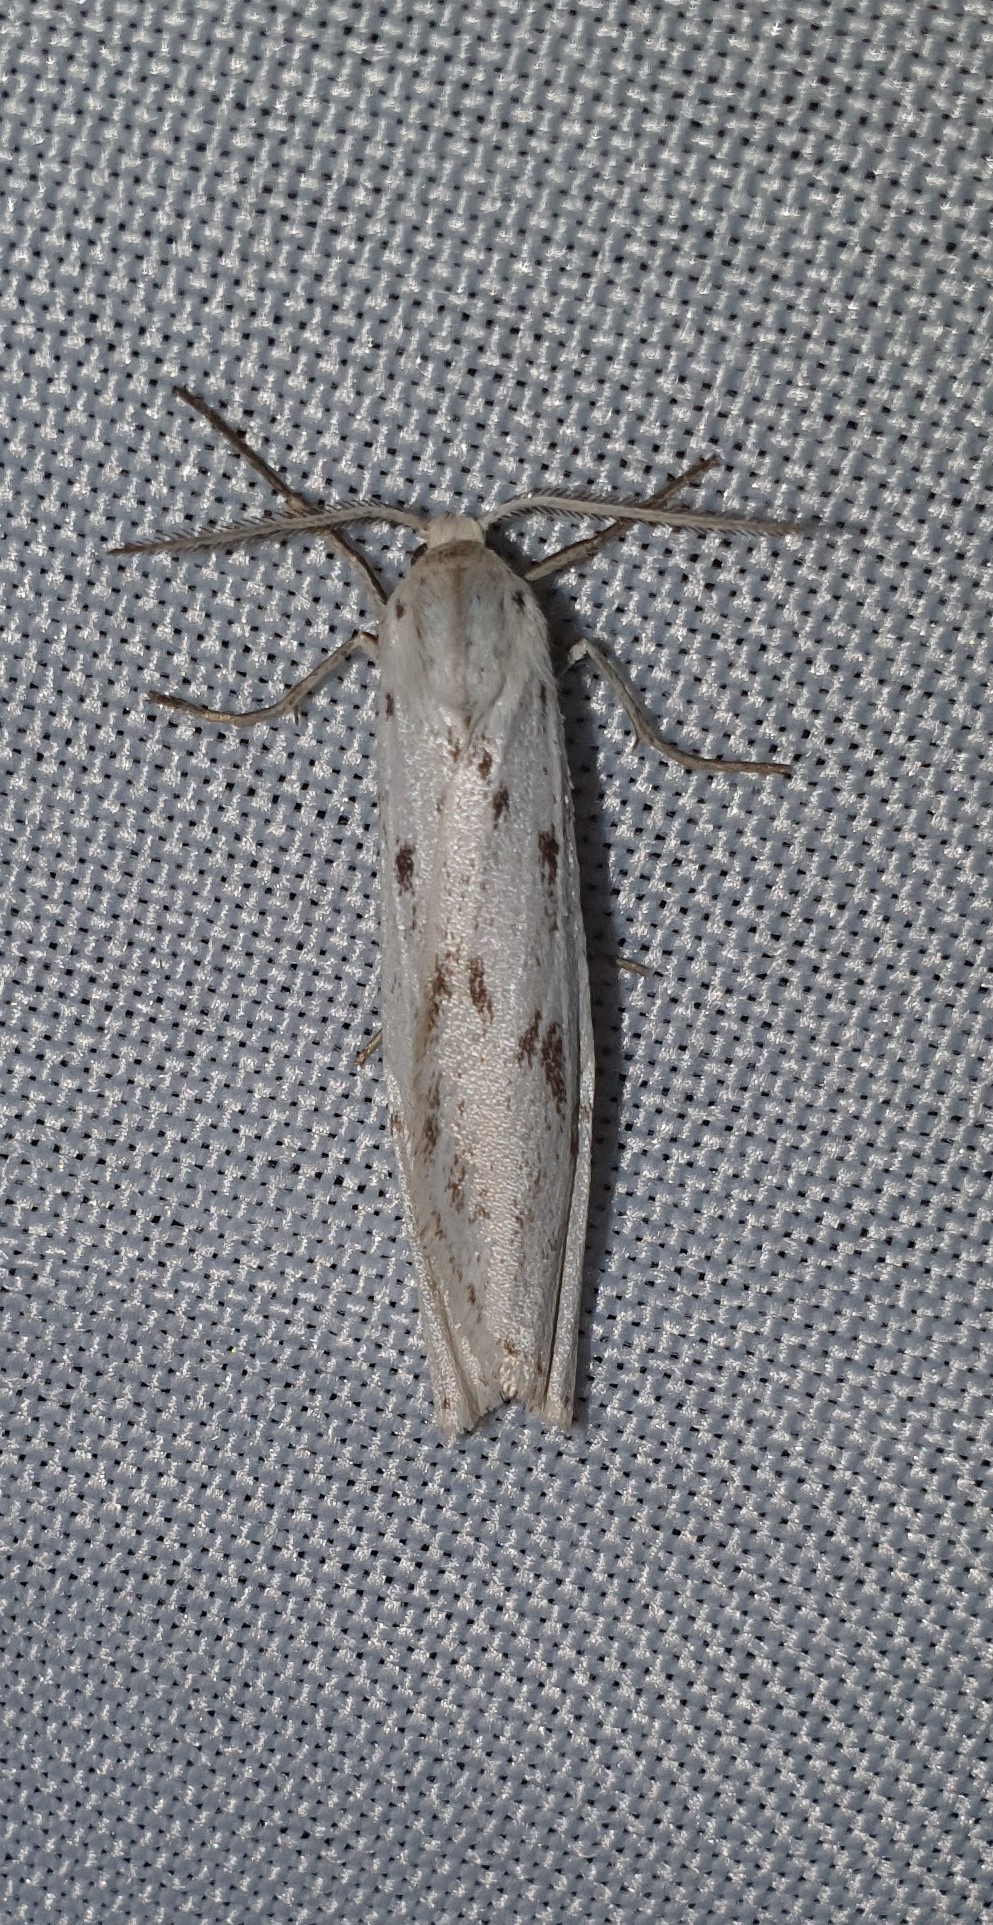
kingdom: Animalia
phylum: Arthropoda
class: Insecta
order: Lepidoptera
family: Erebidae
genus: Coscinia
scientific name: Coscinia cribraria
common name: Speckled footman
